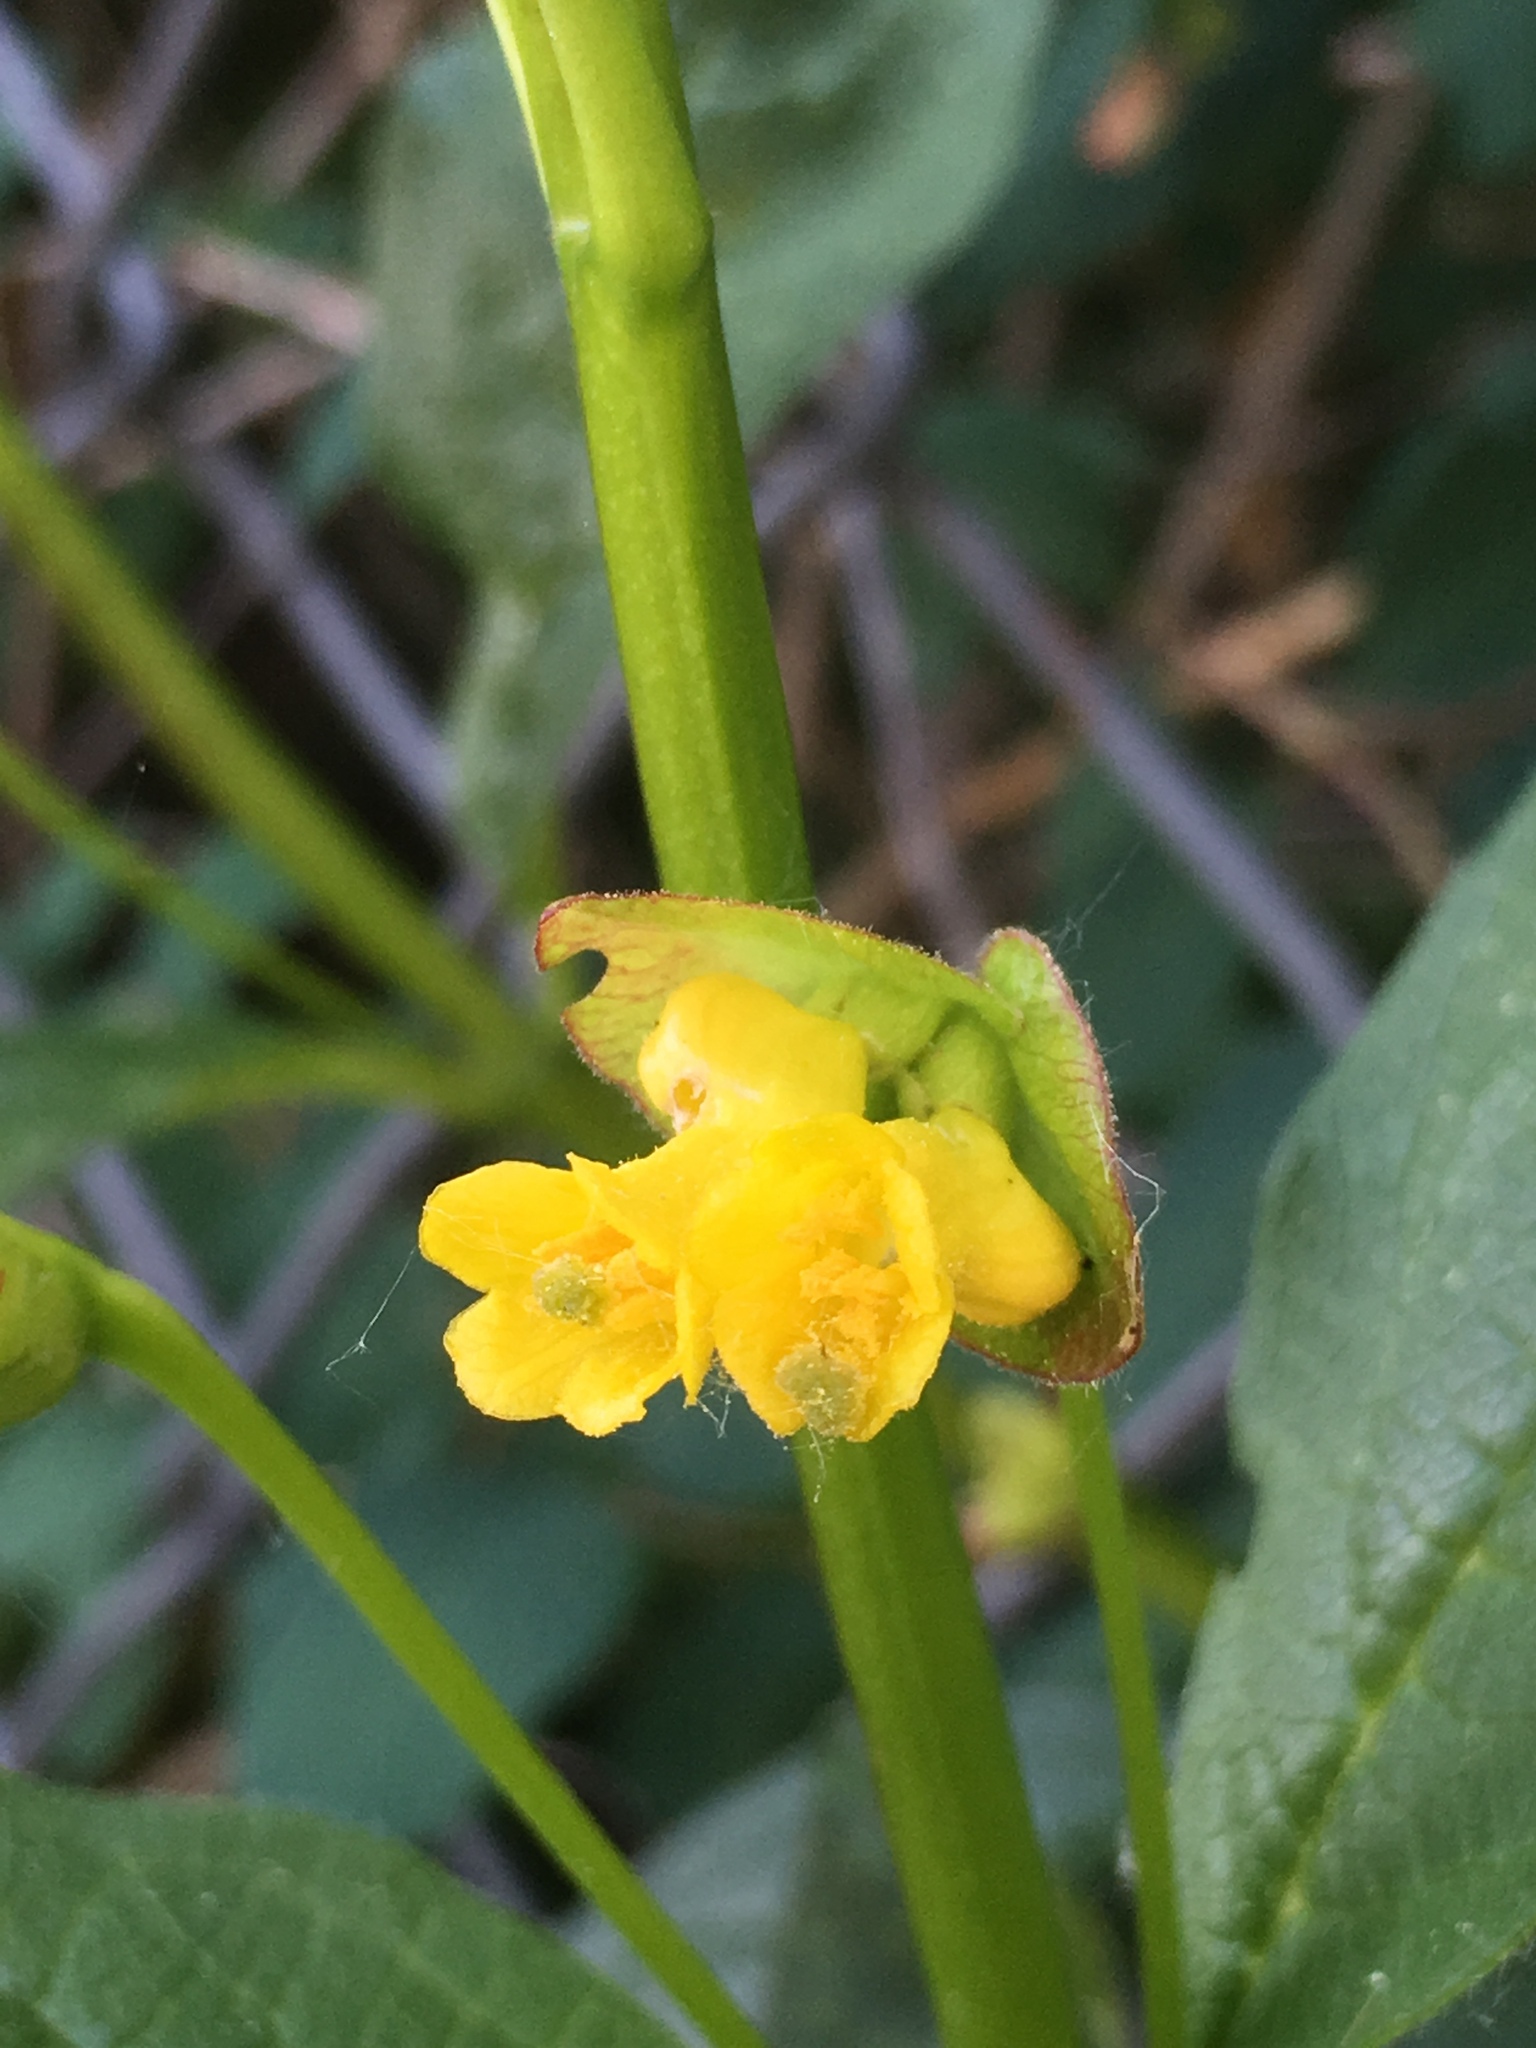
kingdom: Plantae
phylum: Tracheophyta
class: Magnoliopsida
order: Dipsacales
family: Caprifoliaceae
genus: Lonicera
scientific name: Lonicera involucrata
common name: Californian honeysuckle
